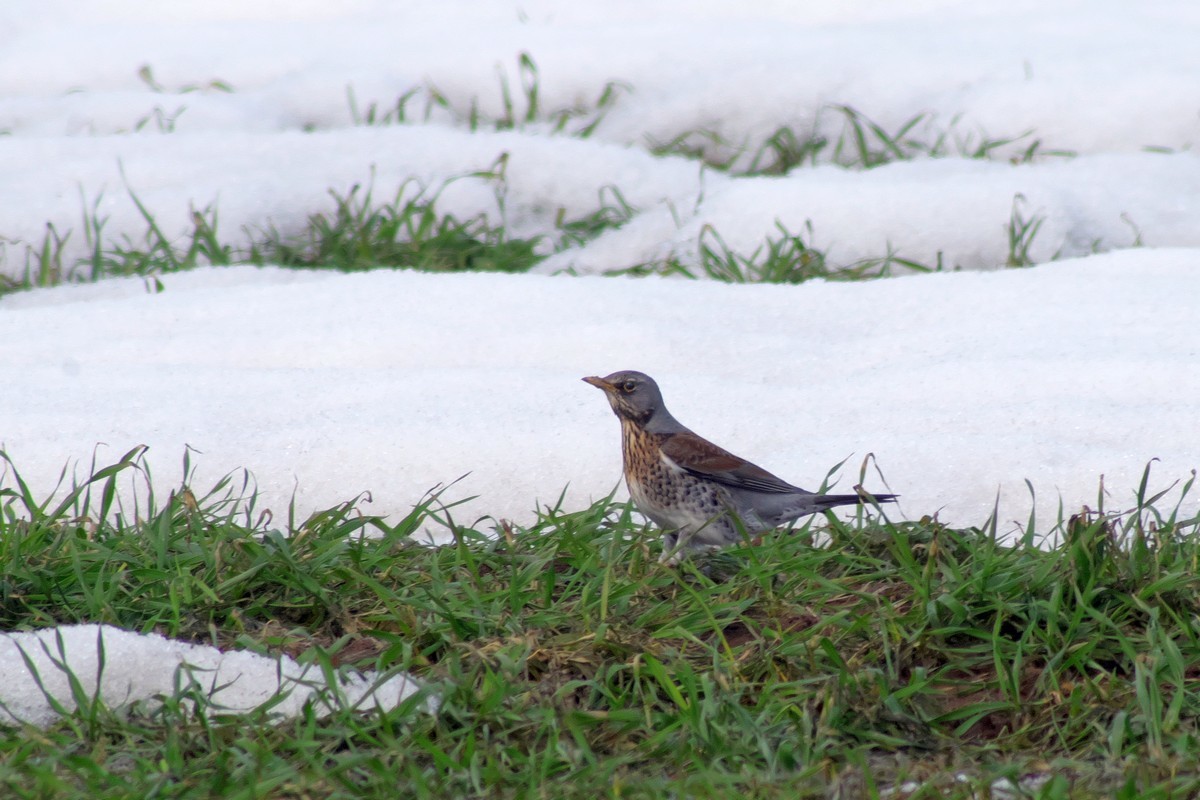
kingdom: Animalia
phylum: Chordata
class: Aves
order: Passeriformes
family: Turdidae
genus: Turdus
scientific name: Turdus pilaris
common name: Fieldfare
